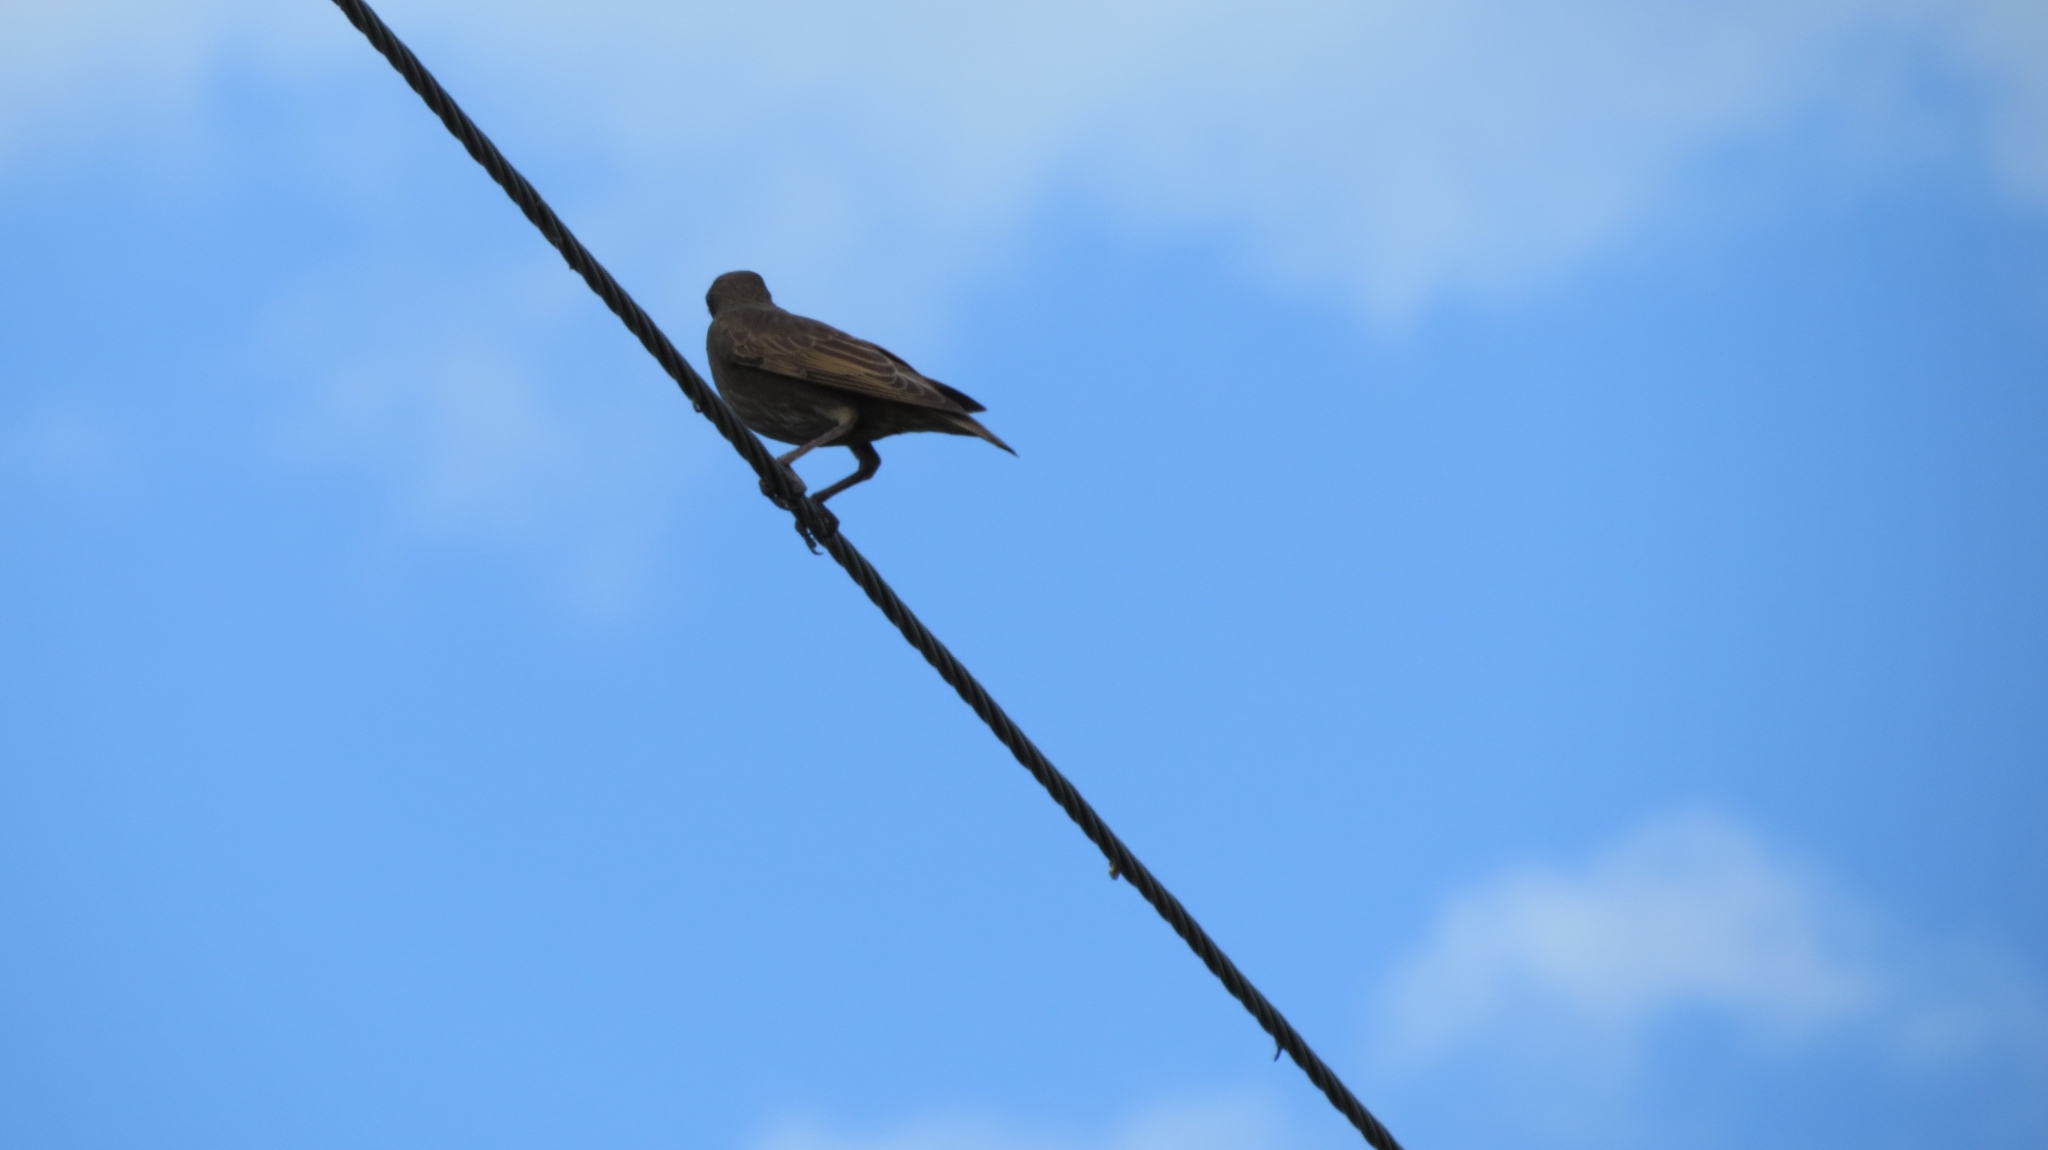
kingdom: Animalia
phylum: Chordata
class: Aves
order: Passeriformes
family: Sturnidae
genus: Sturnus
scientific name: Sturnus vulgaris
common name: Common starling
